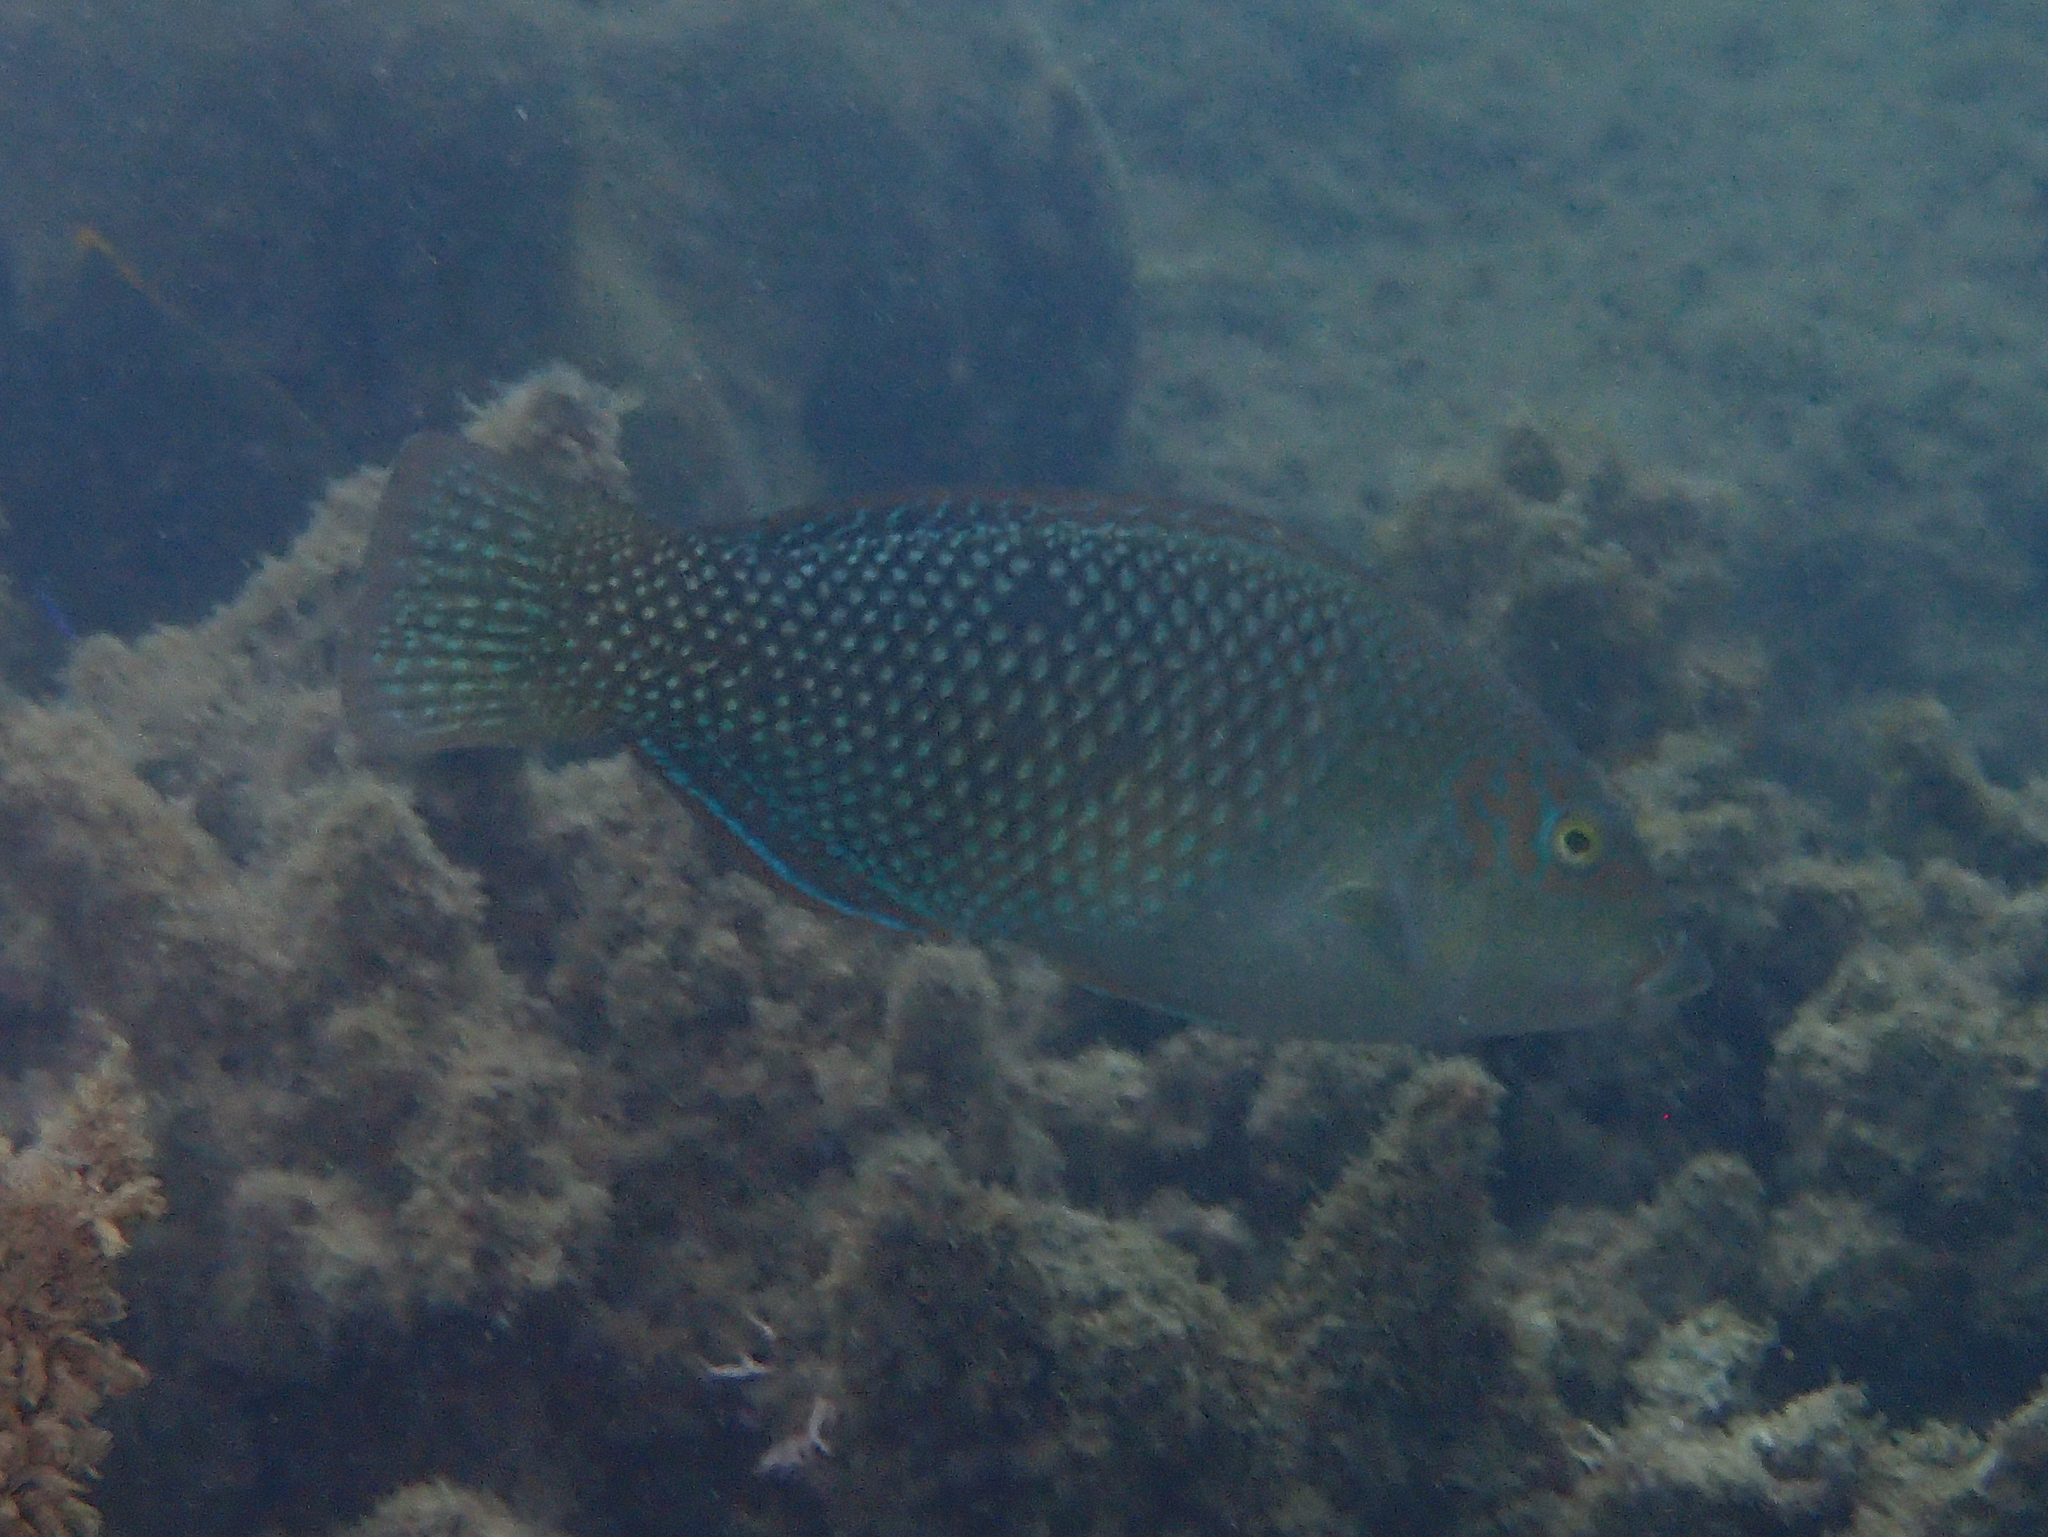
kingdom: Animalia
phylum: Chordata
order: Perciformes
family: Labridae
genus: Hemigymnus
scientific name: Hemigymnus melapterus
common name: Blackeye thicklip
